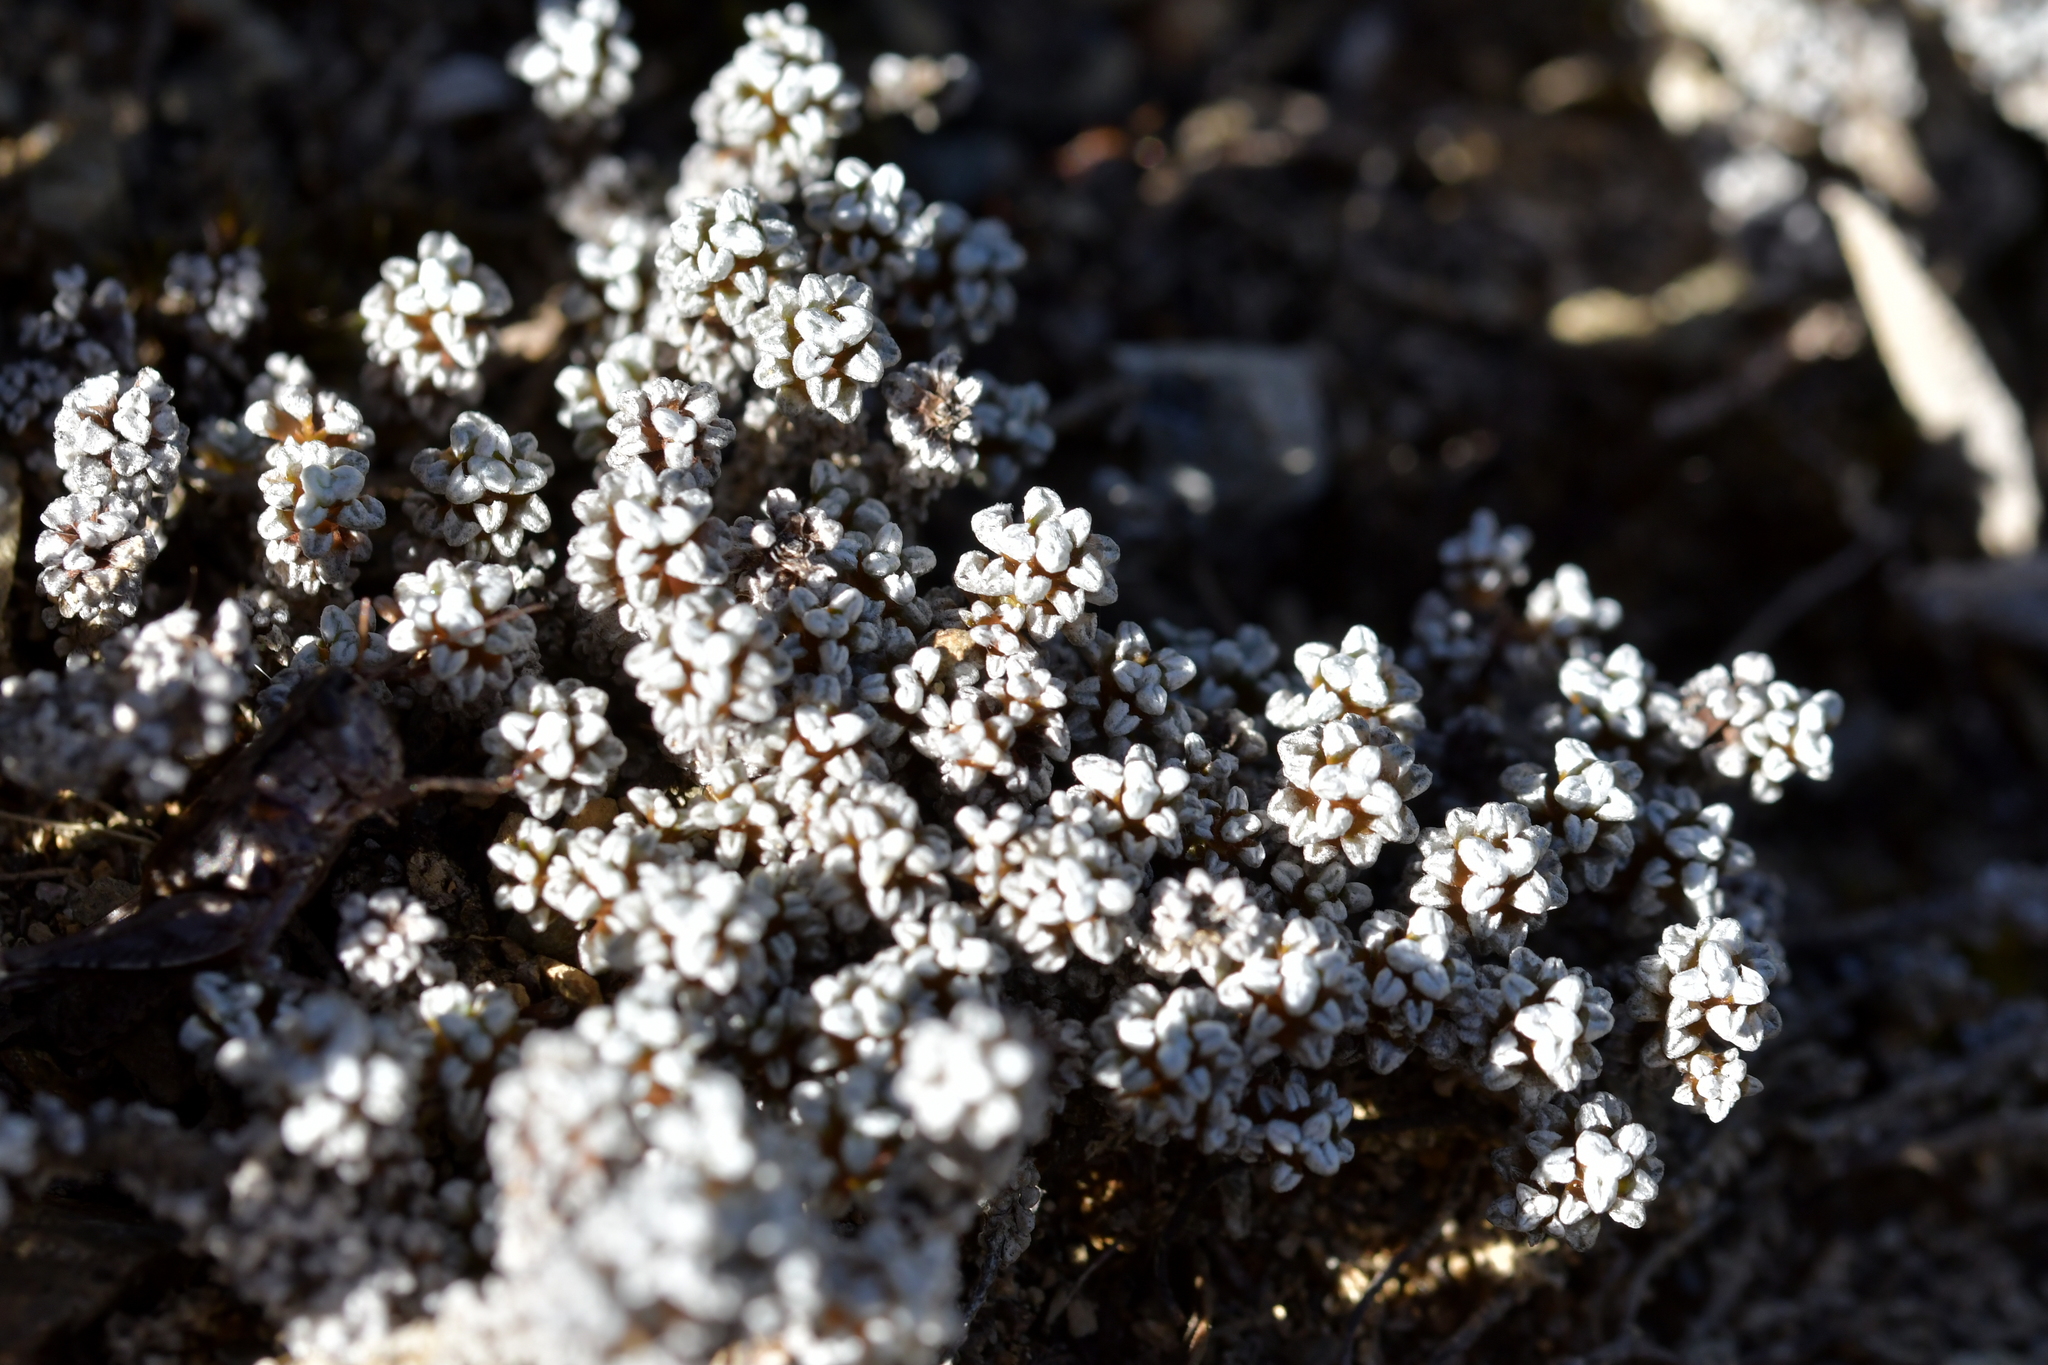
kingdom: Plantae
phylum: Tracheophyta
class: Magnoliopsida
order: Asterales
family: Asteraceae
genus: Raoulia
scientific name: Raoulia albosericea
